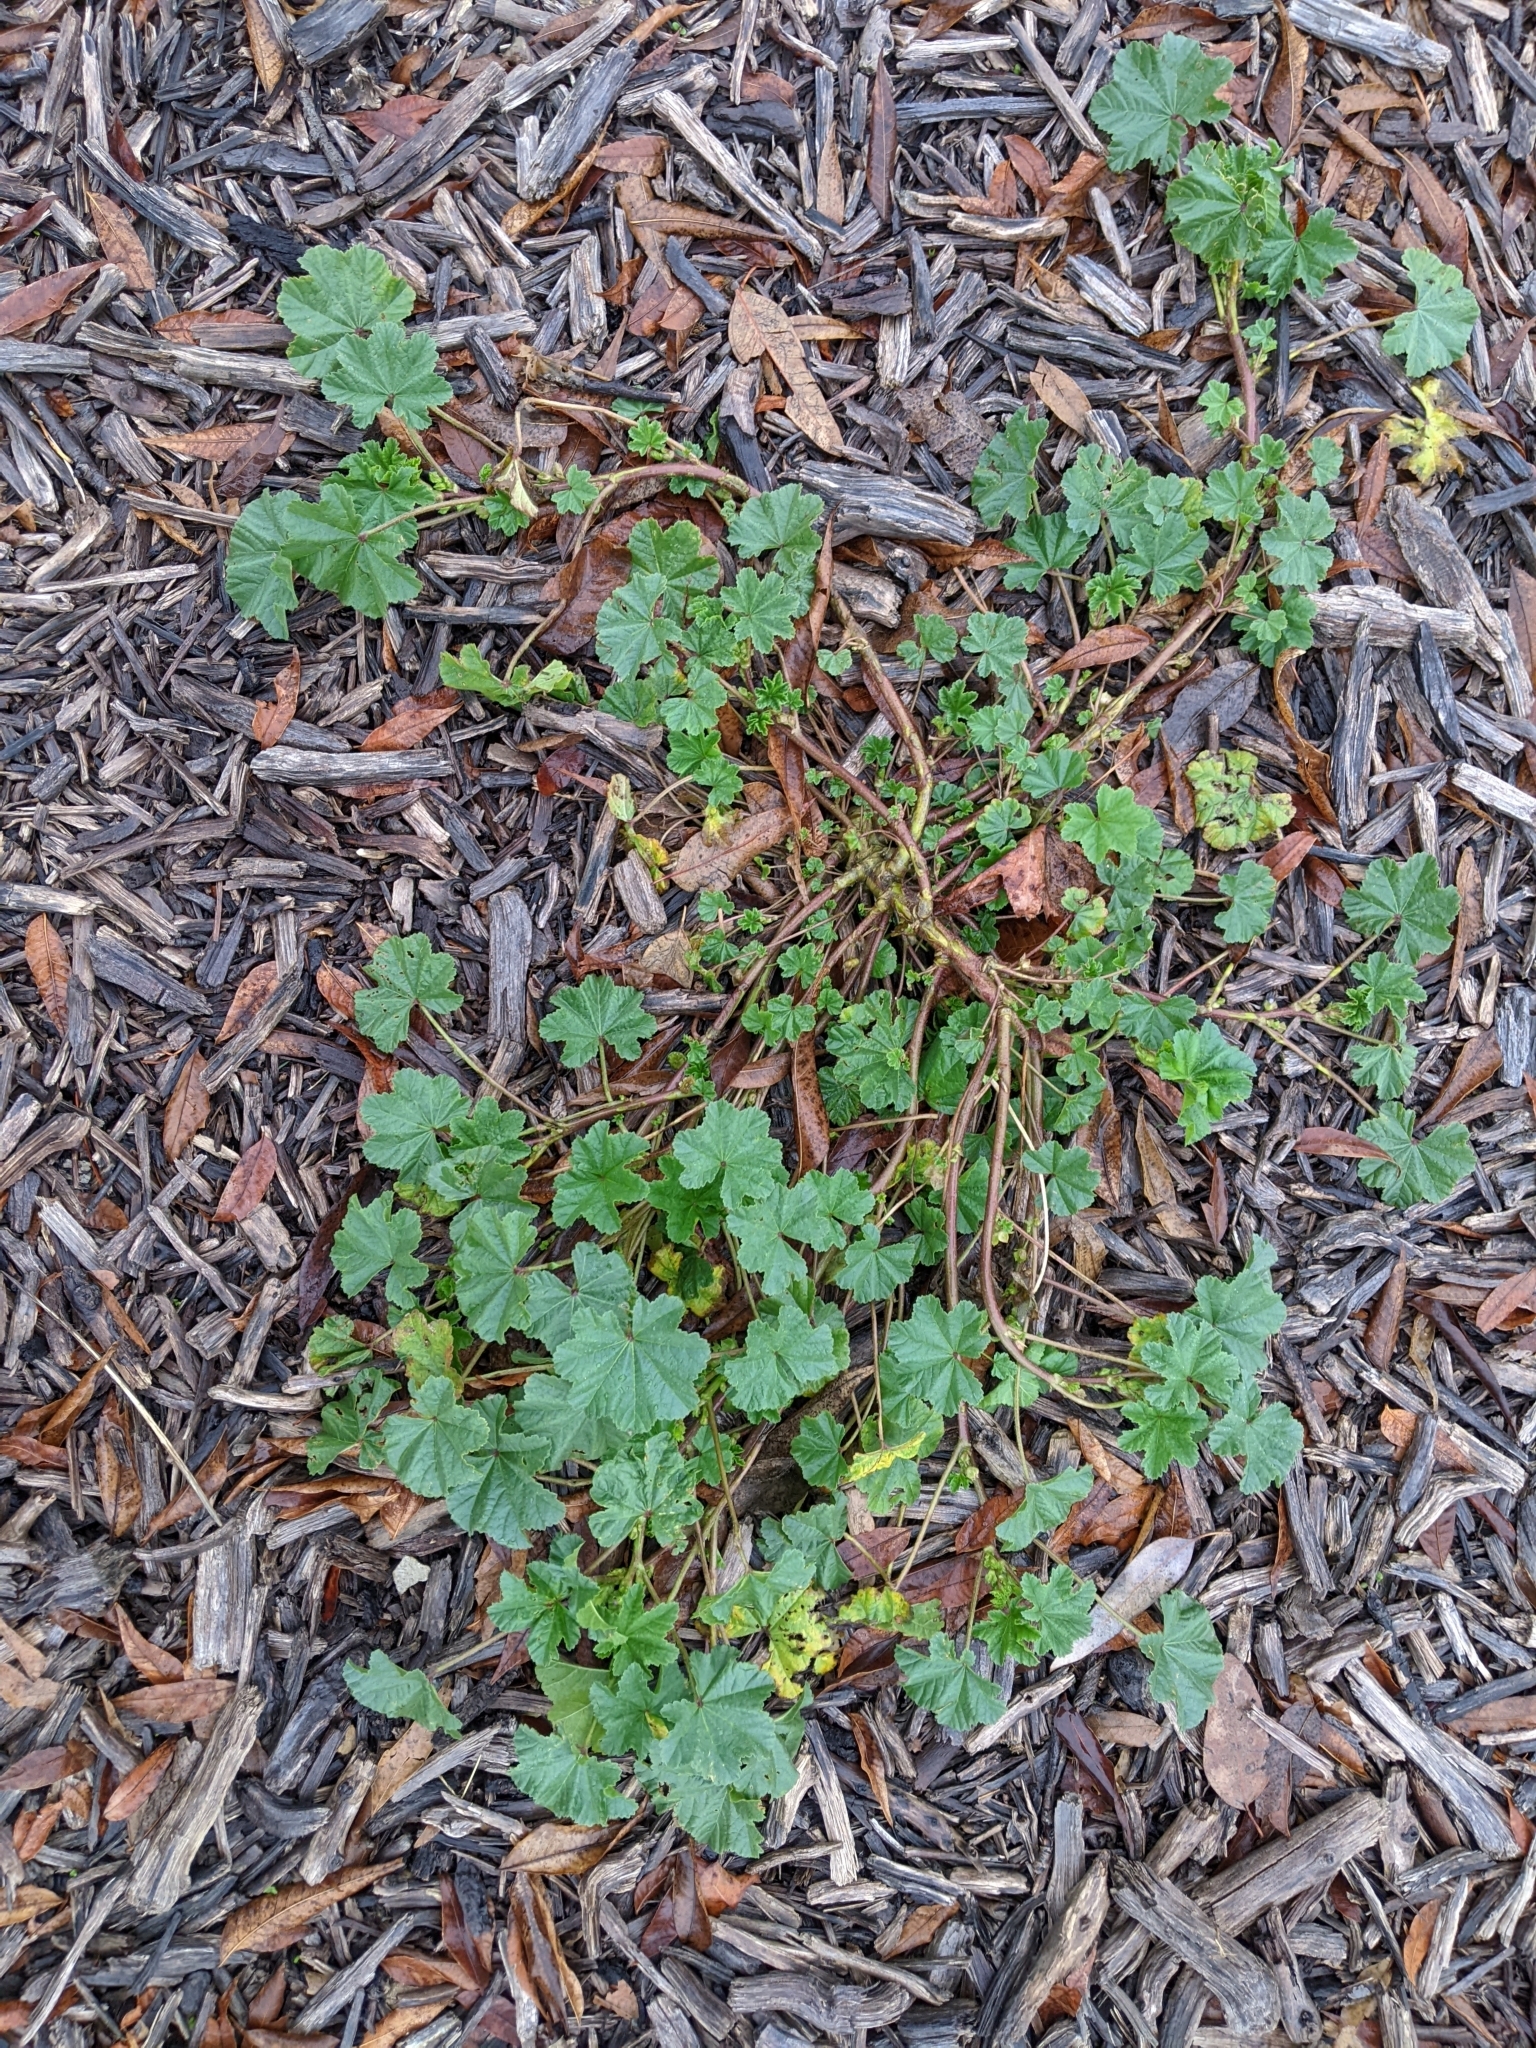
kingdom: Plantae
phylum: Tracheophyta
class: Magnoliopsida
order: Malvales
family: Malvaceae
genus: Malva
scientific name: Malva parviflora
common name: Least mallow
